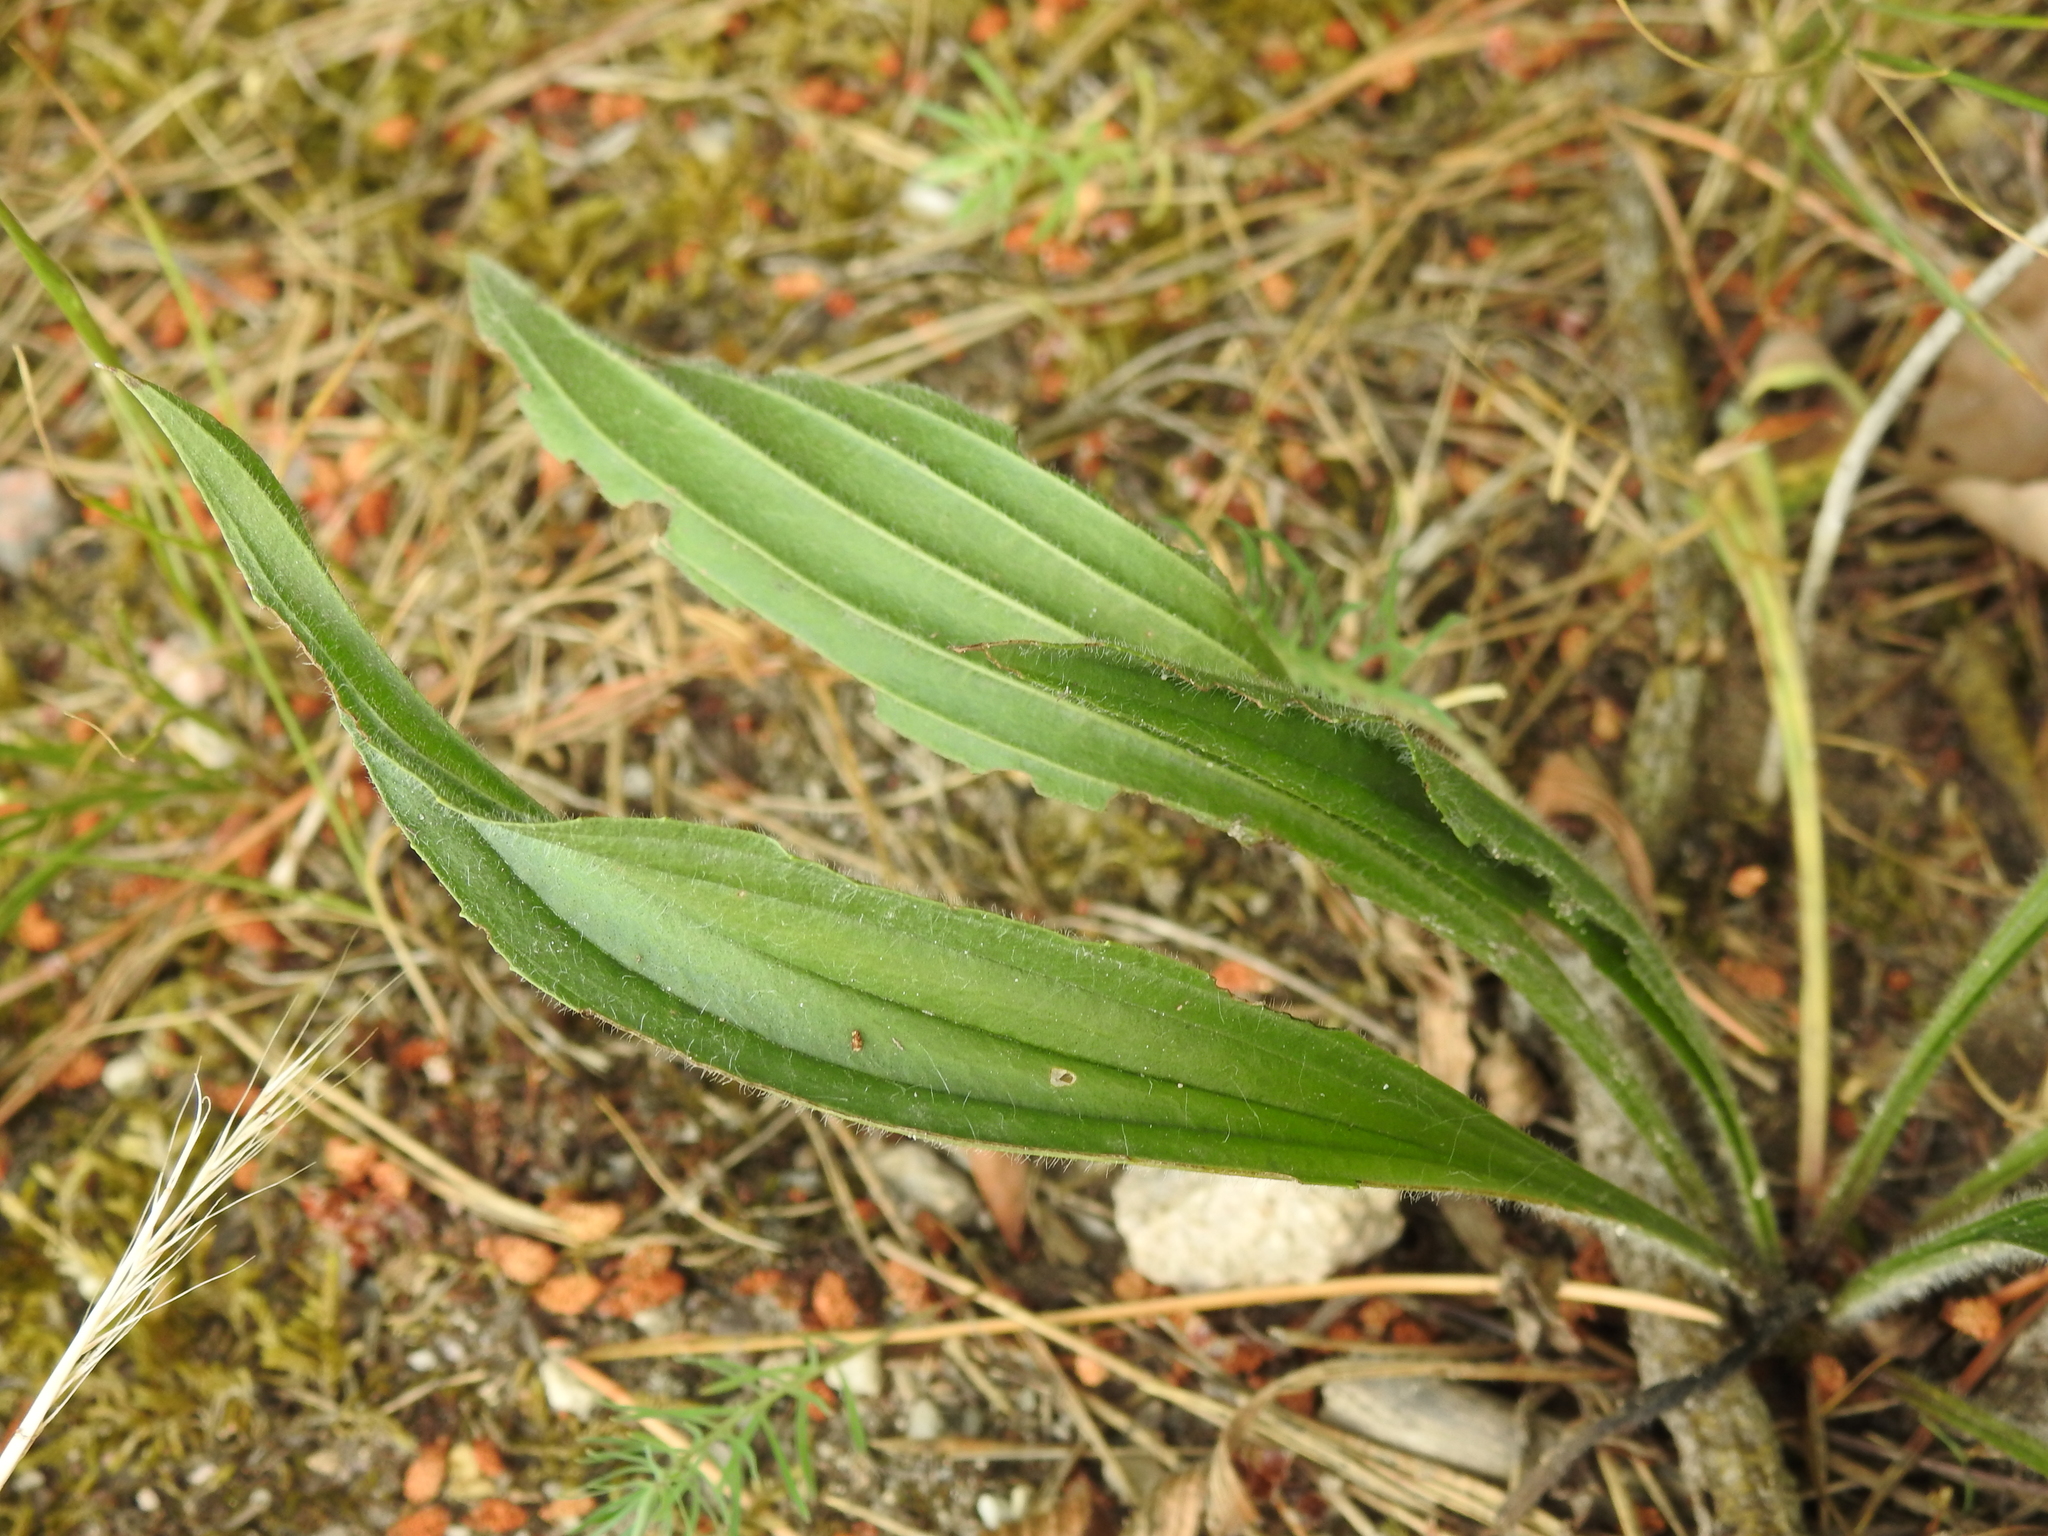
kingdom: Plantae
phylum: Tracheophyta
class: Magnoliopsida
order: Lamiales
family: Plantaginaceae
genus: Plantago
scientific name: Plantago lanceolata
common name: Ribwort plantain
